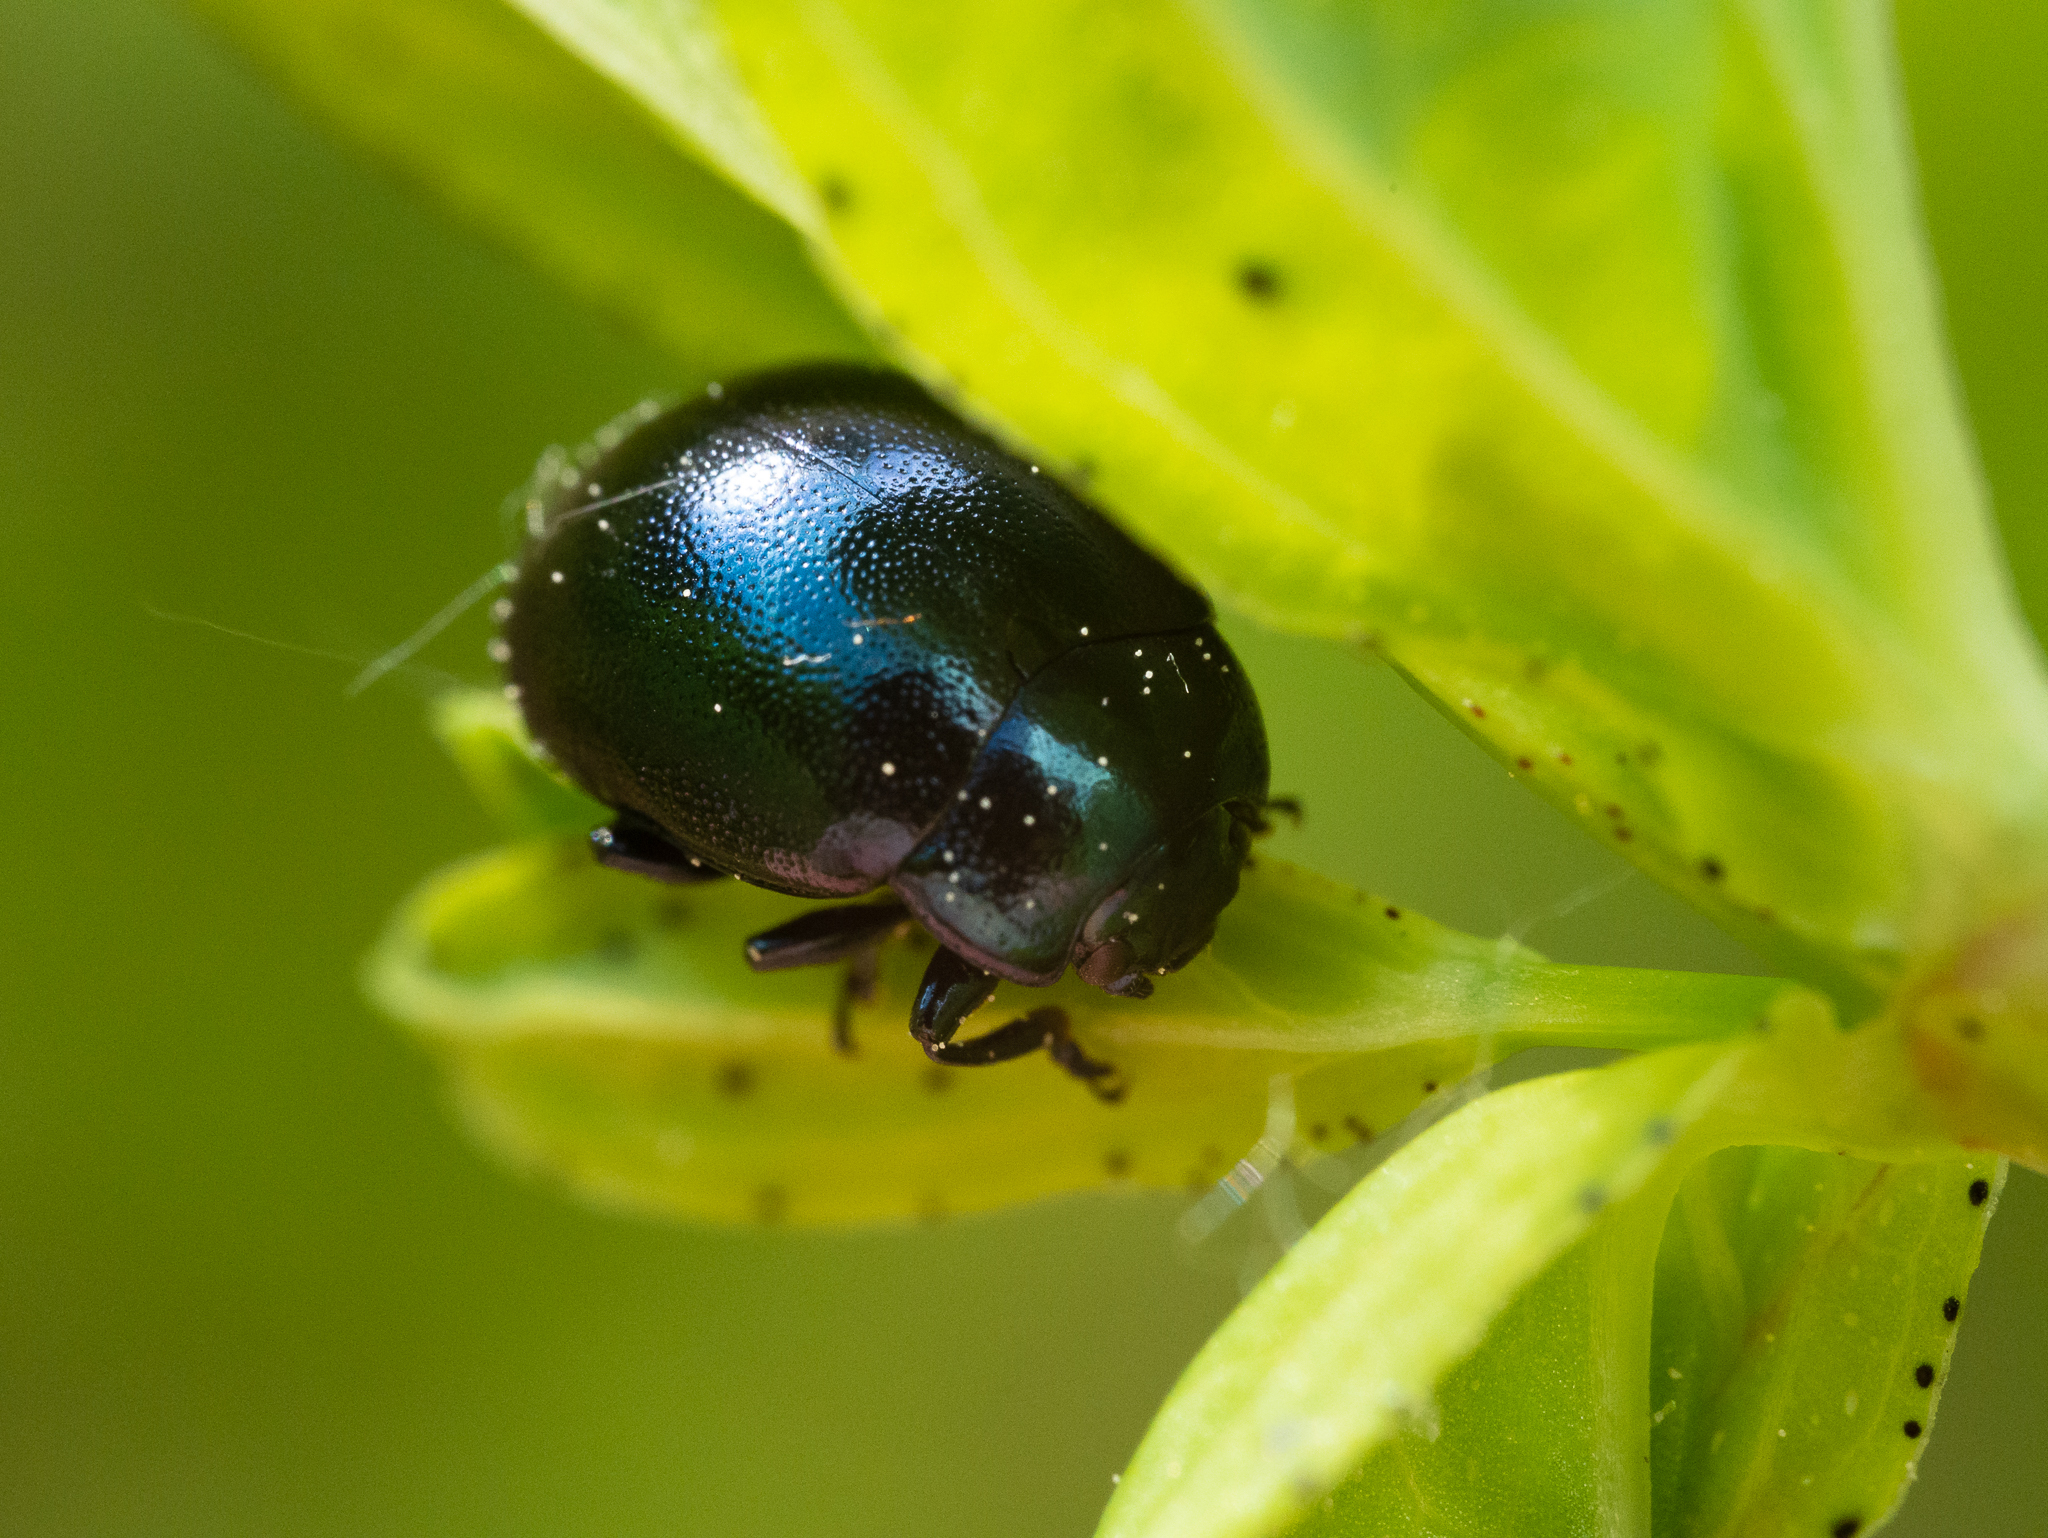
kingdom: Animalia
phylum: Arthropoda
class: Insecta
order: Coleoptera
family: Chrysomelidae
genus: Chrysolina
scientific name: Chrysolina varians
